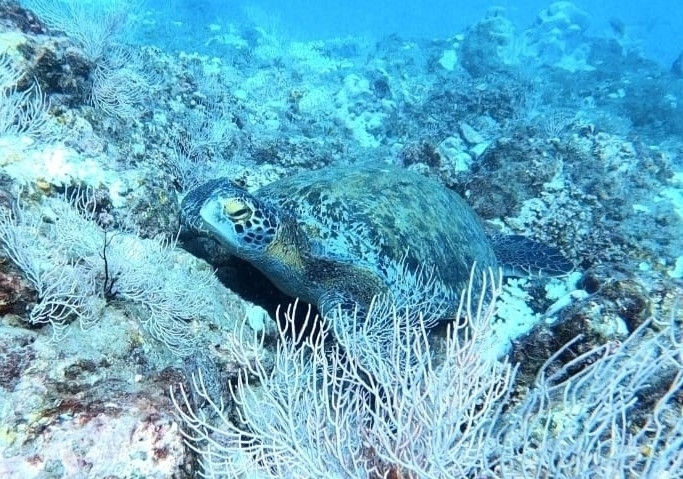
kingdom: Animalia
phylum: Chordata
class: Testudines
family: Cheloniidae
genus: Chelonia
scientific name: Chelonia mydas
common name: Green turtle
